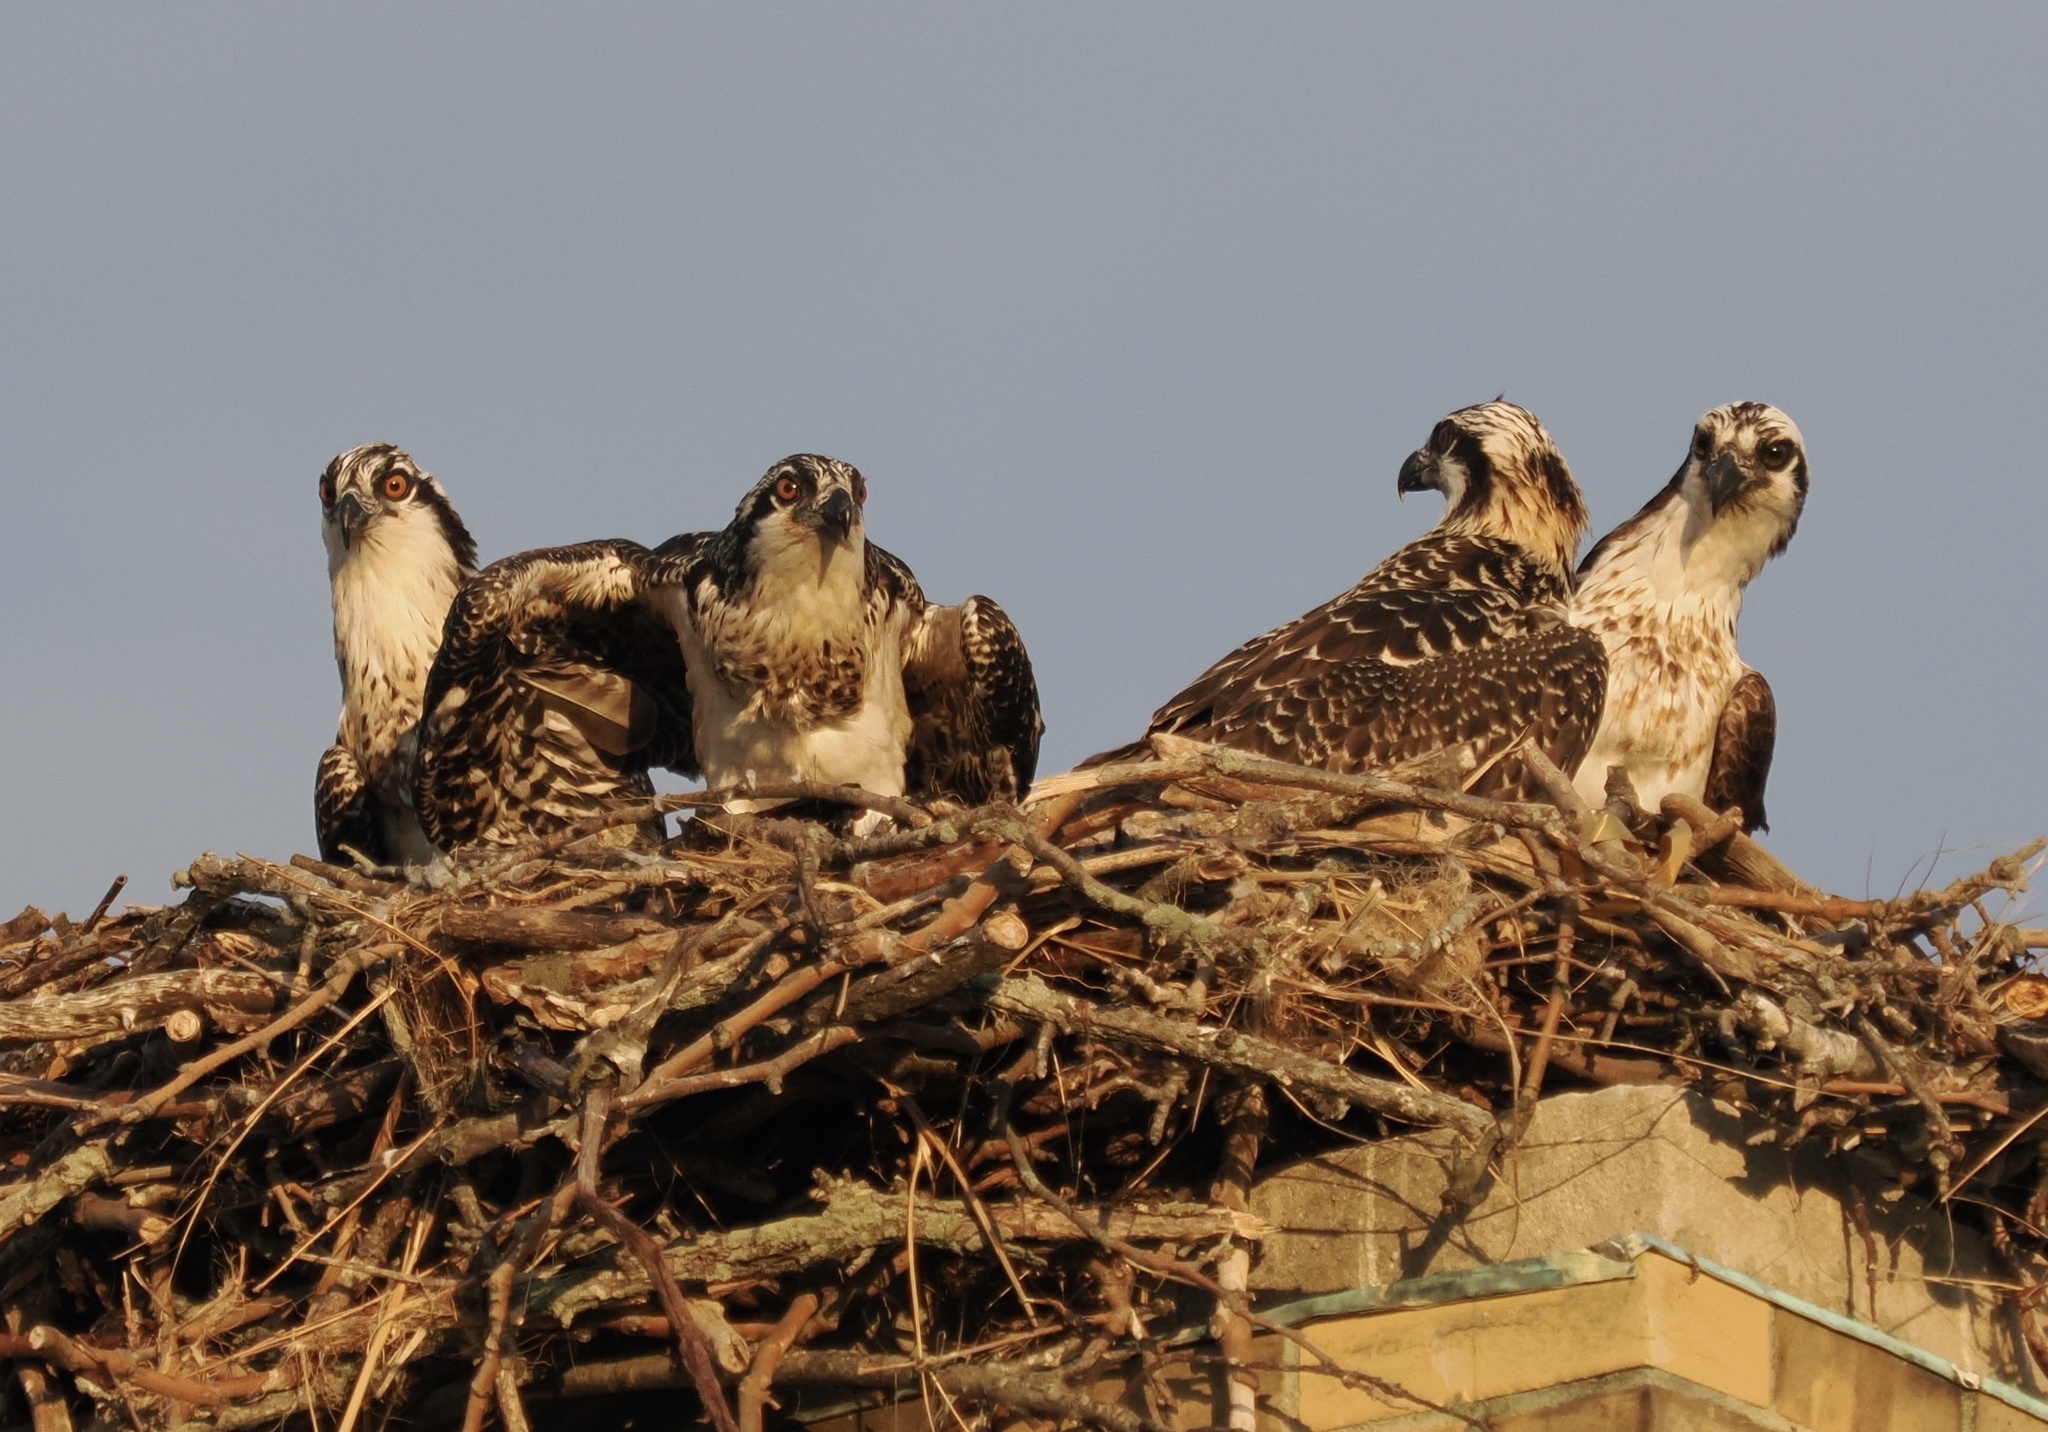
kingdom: Animalia
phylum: Chordata
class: Aves
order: Accipitriformes
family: Pandionidae
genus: Pandion
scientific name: Pandion haliaetus
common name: Osprey
